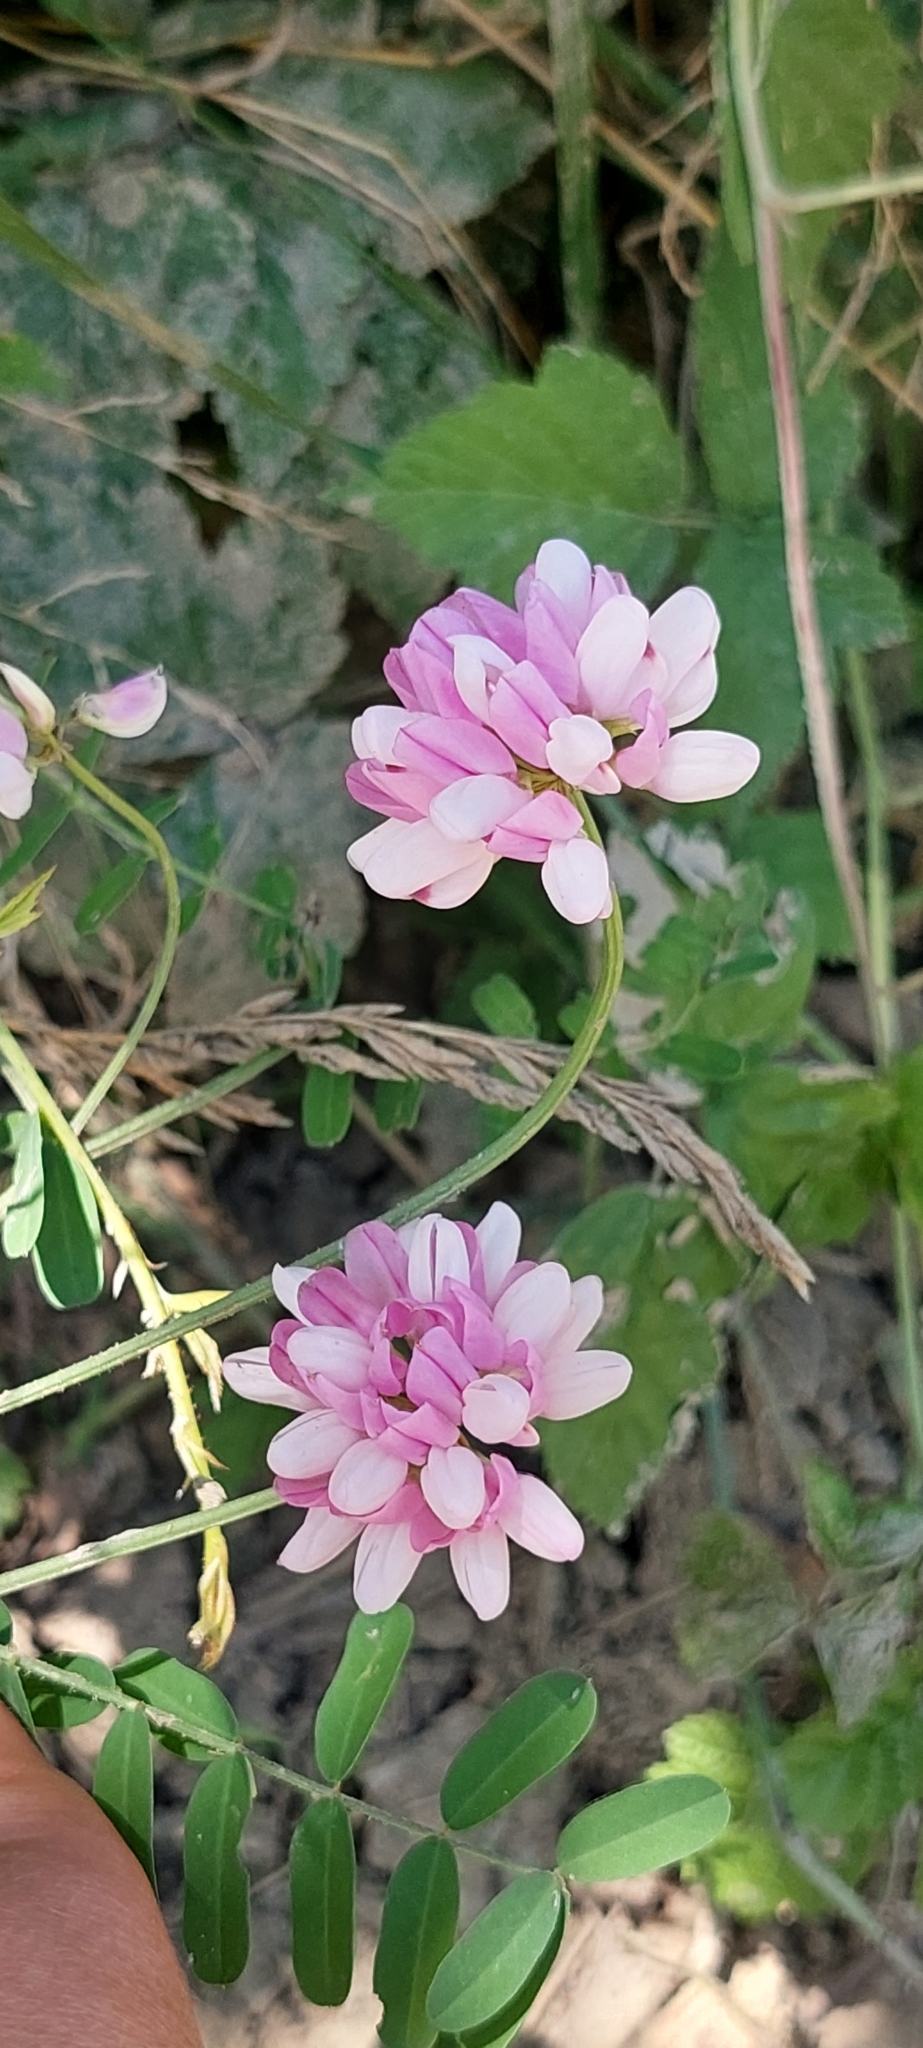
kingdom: Plantae
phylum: Tracheophyta
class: Magnoliopsida
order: Fabales
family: Fabaceae
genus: Coronilla
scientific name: Coronilla varia
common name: Crownvetch
